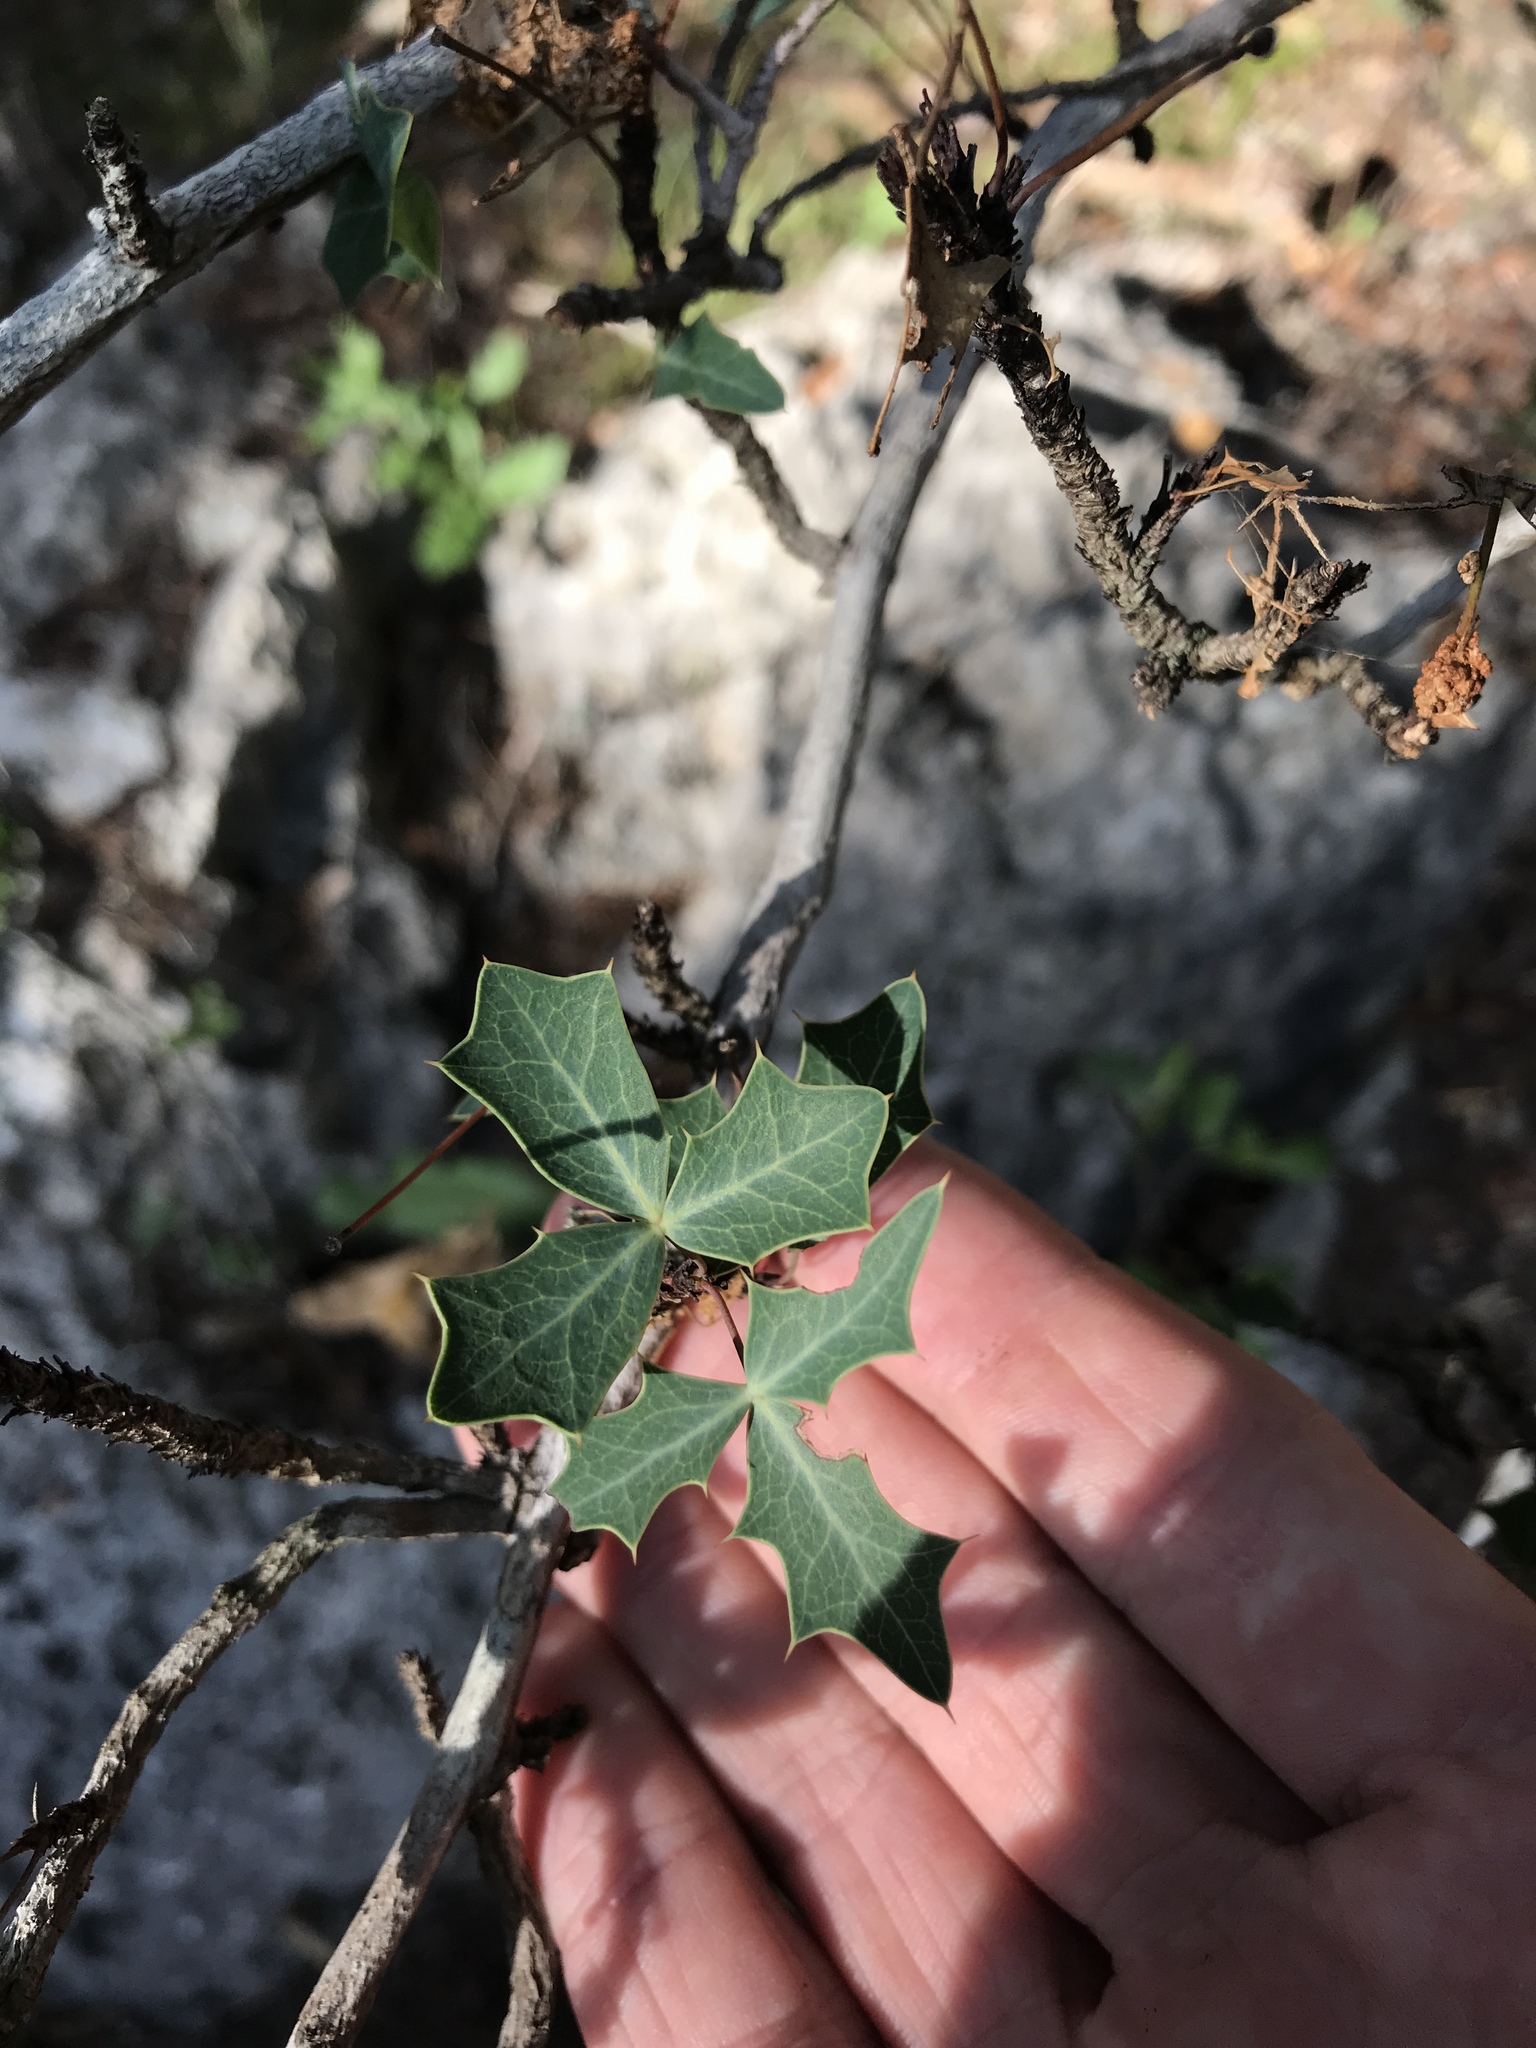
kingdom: Plantae
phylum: Tracheophyta
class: Magnoliopsida
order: Ranunculales
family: Berberidaceae
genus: Alloberberis
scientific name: Alloberberis trifoliolata
